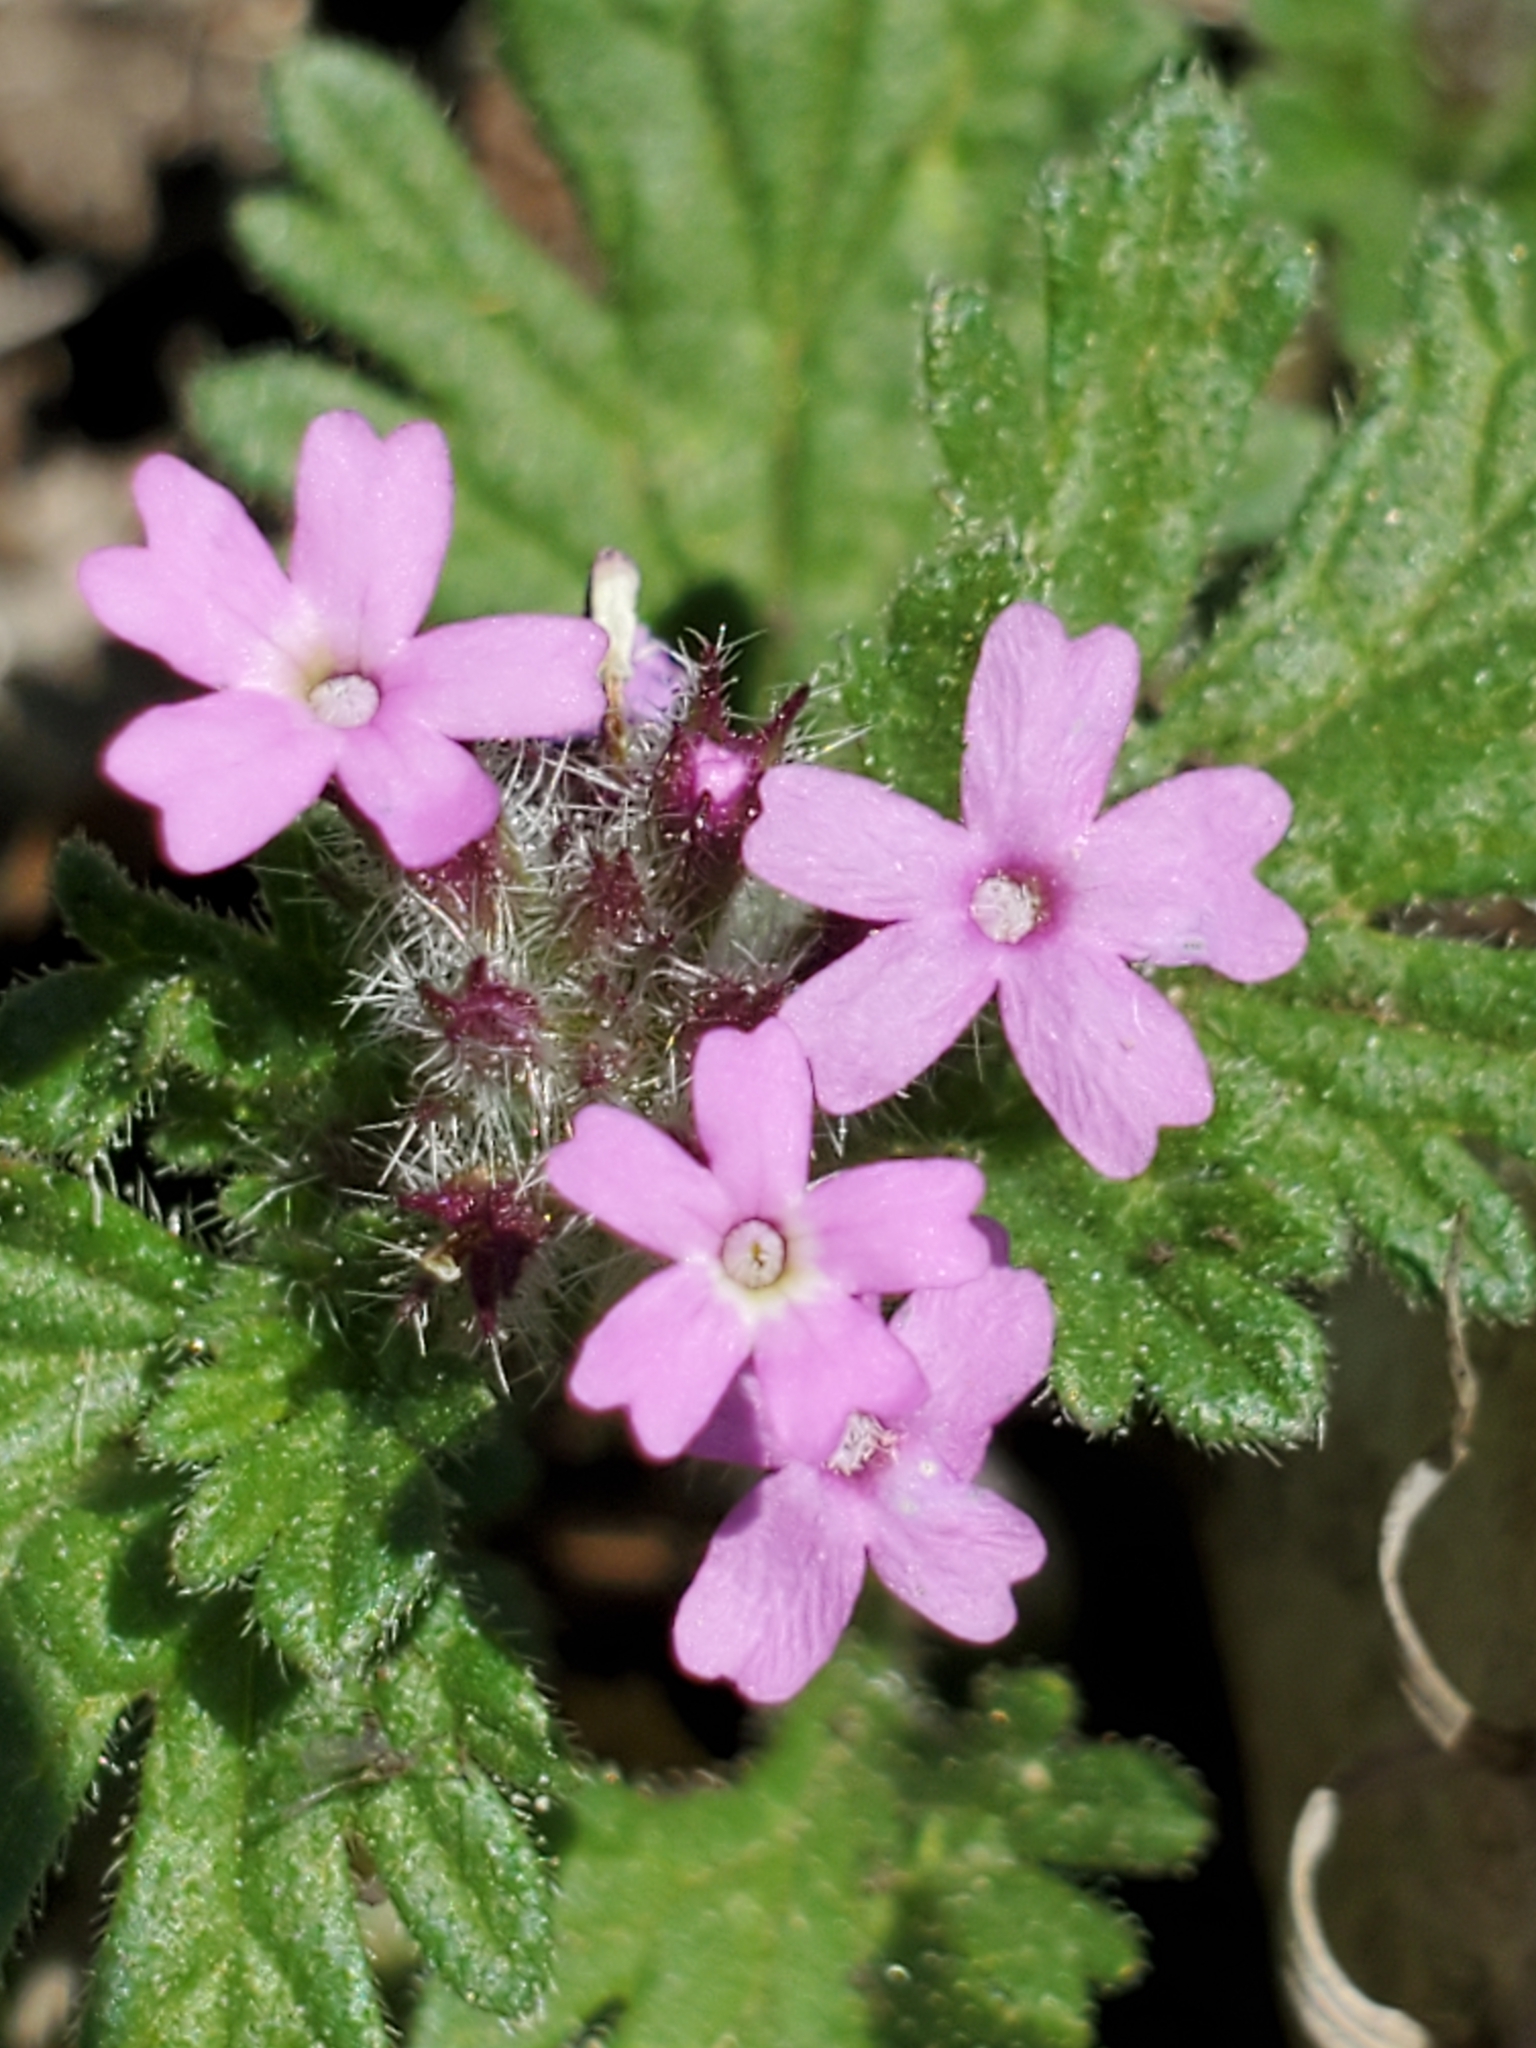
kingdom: Plantae
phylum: Tracheophyta
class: Magnoliopsida
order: Lamiales
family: Verbenaceae
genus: Verbena
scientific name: Verbena pumila
